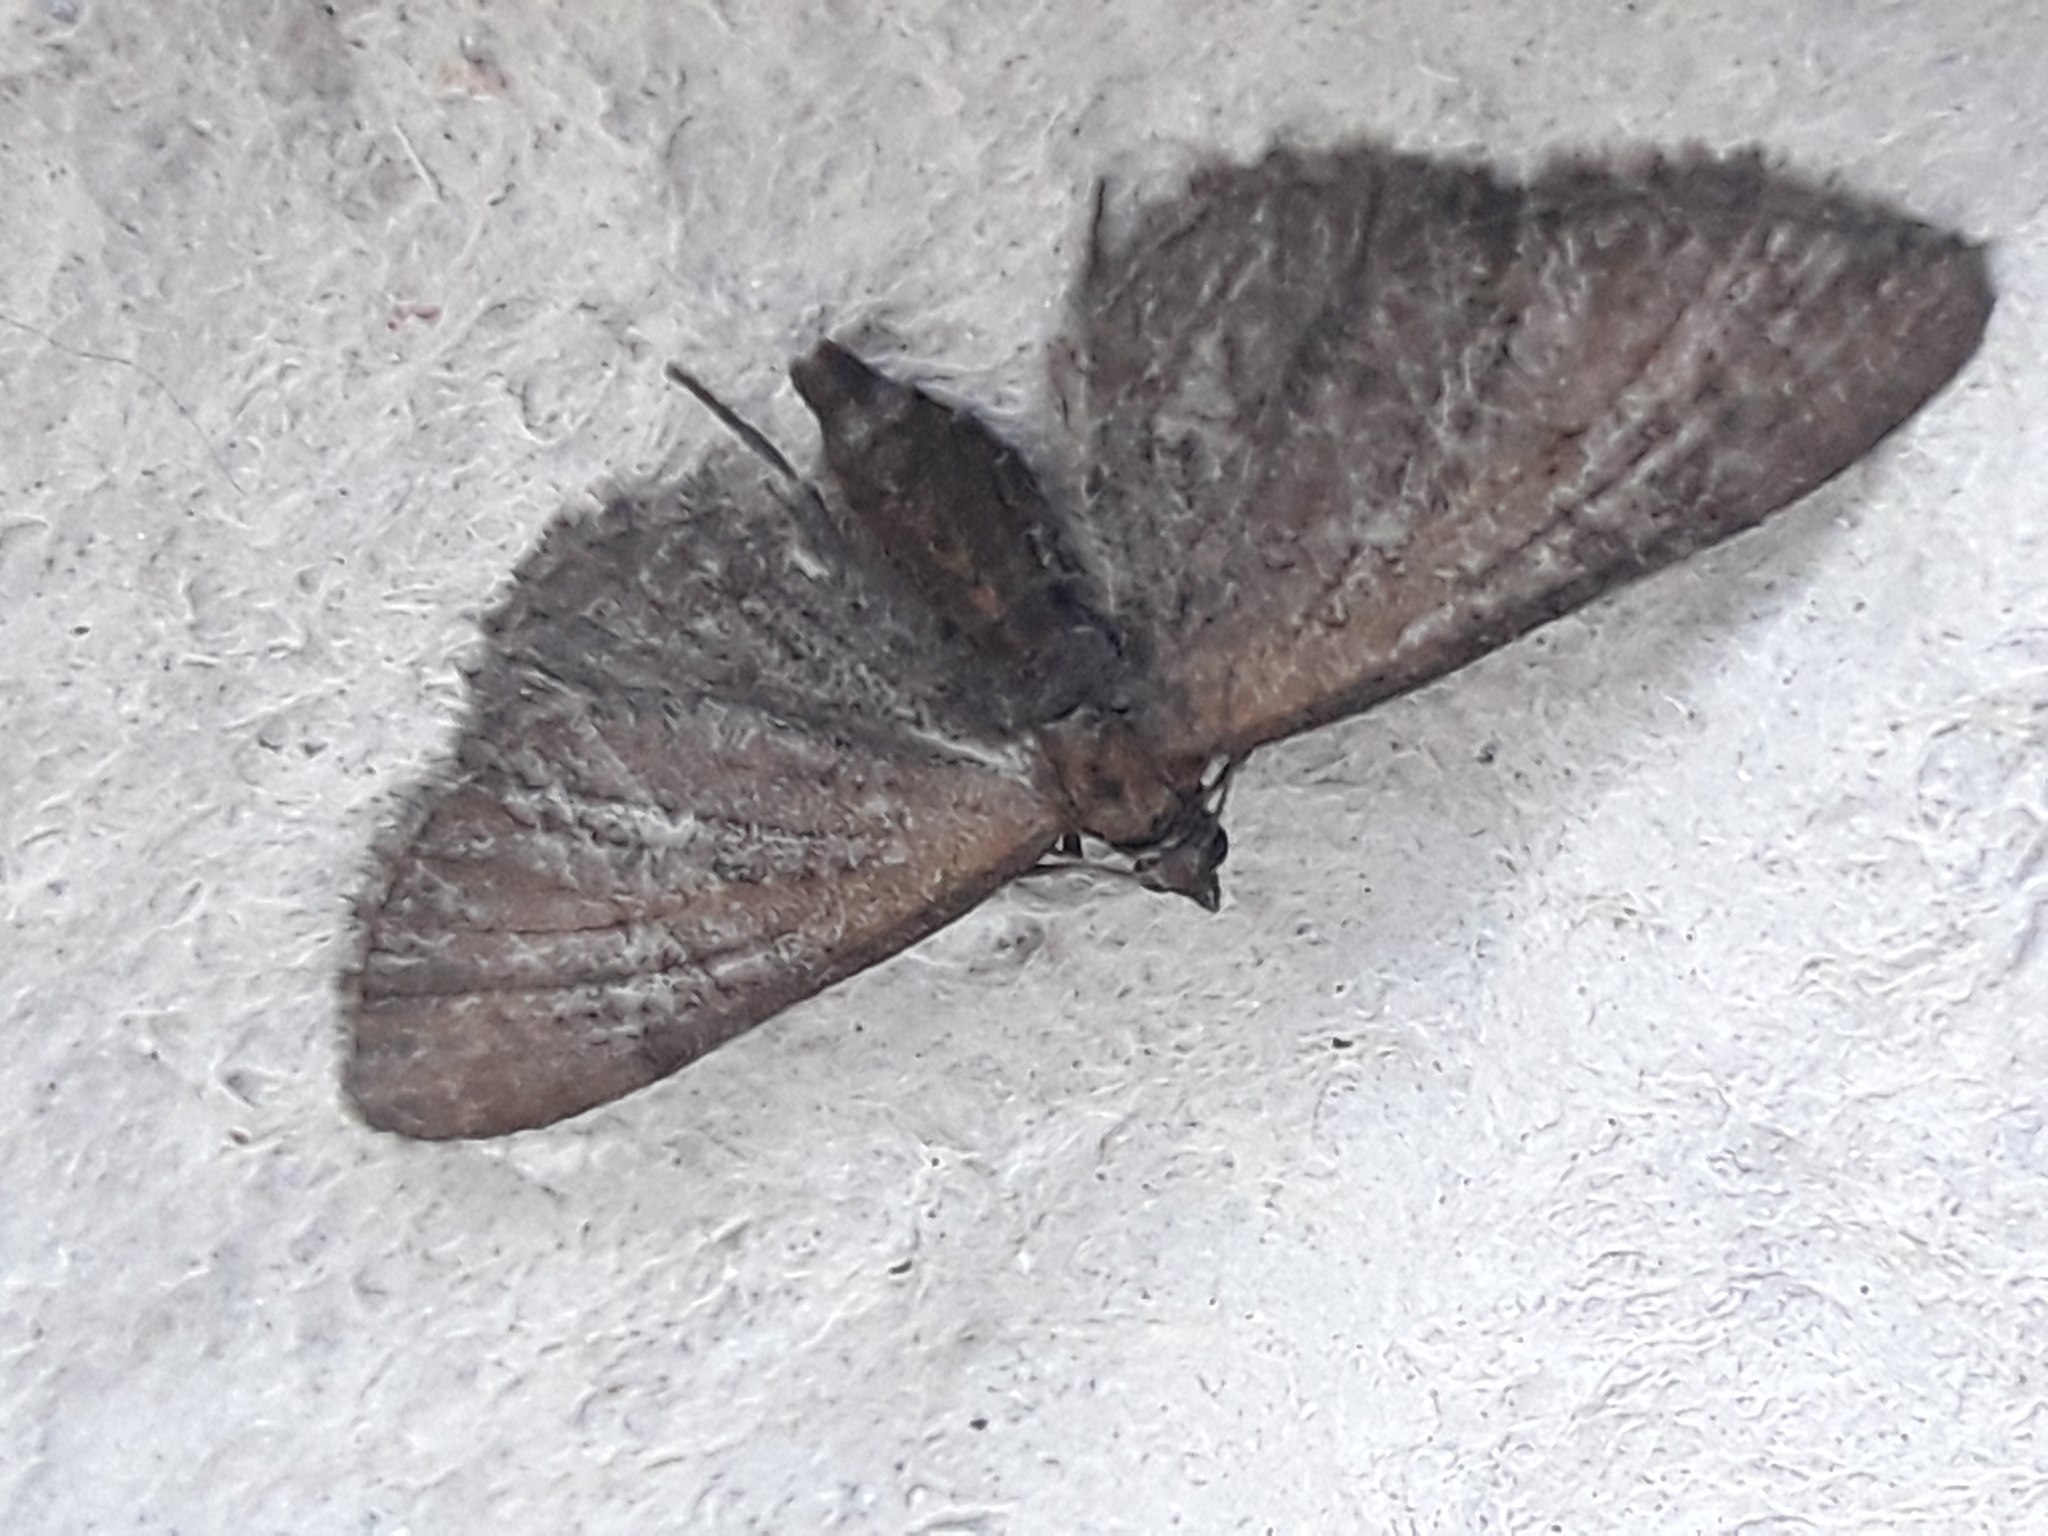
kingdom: Animalia
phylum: Arthropoda
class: Insecta
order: Lepidoptera
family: Geometridae
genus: Eupithecia
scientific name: Eupithecia vulgata
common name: Common pug
